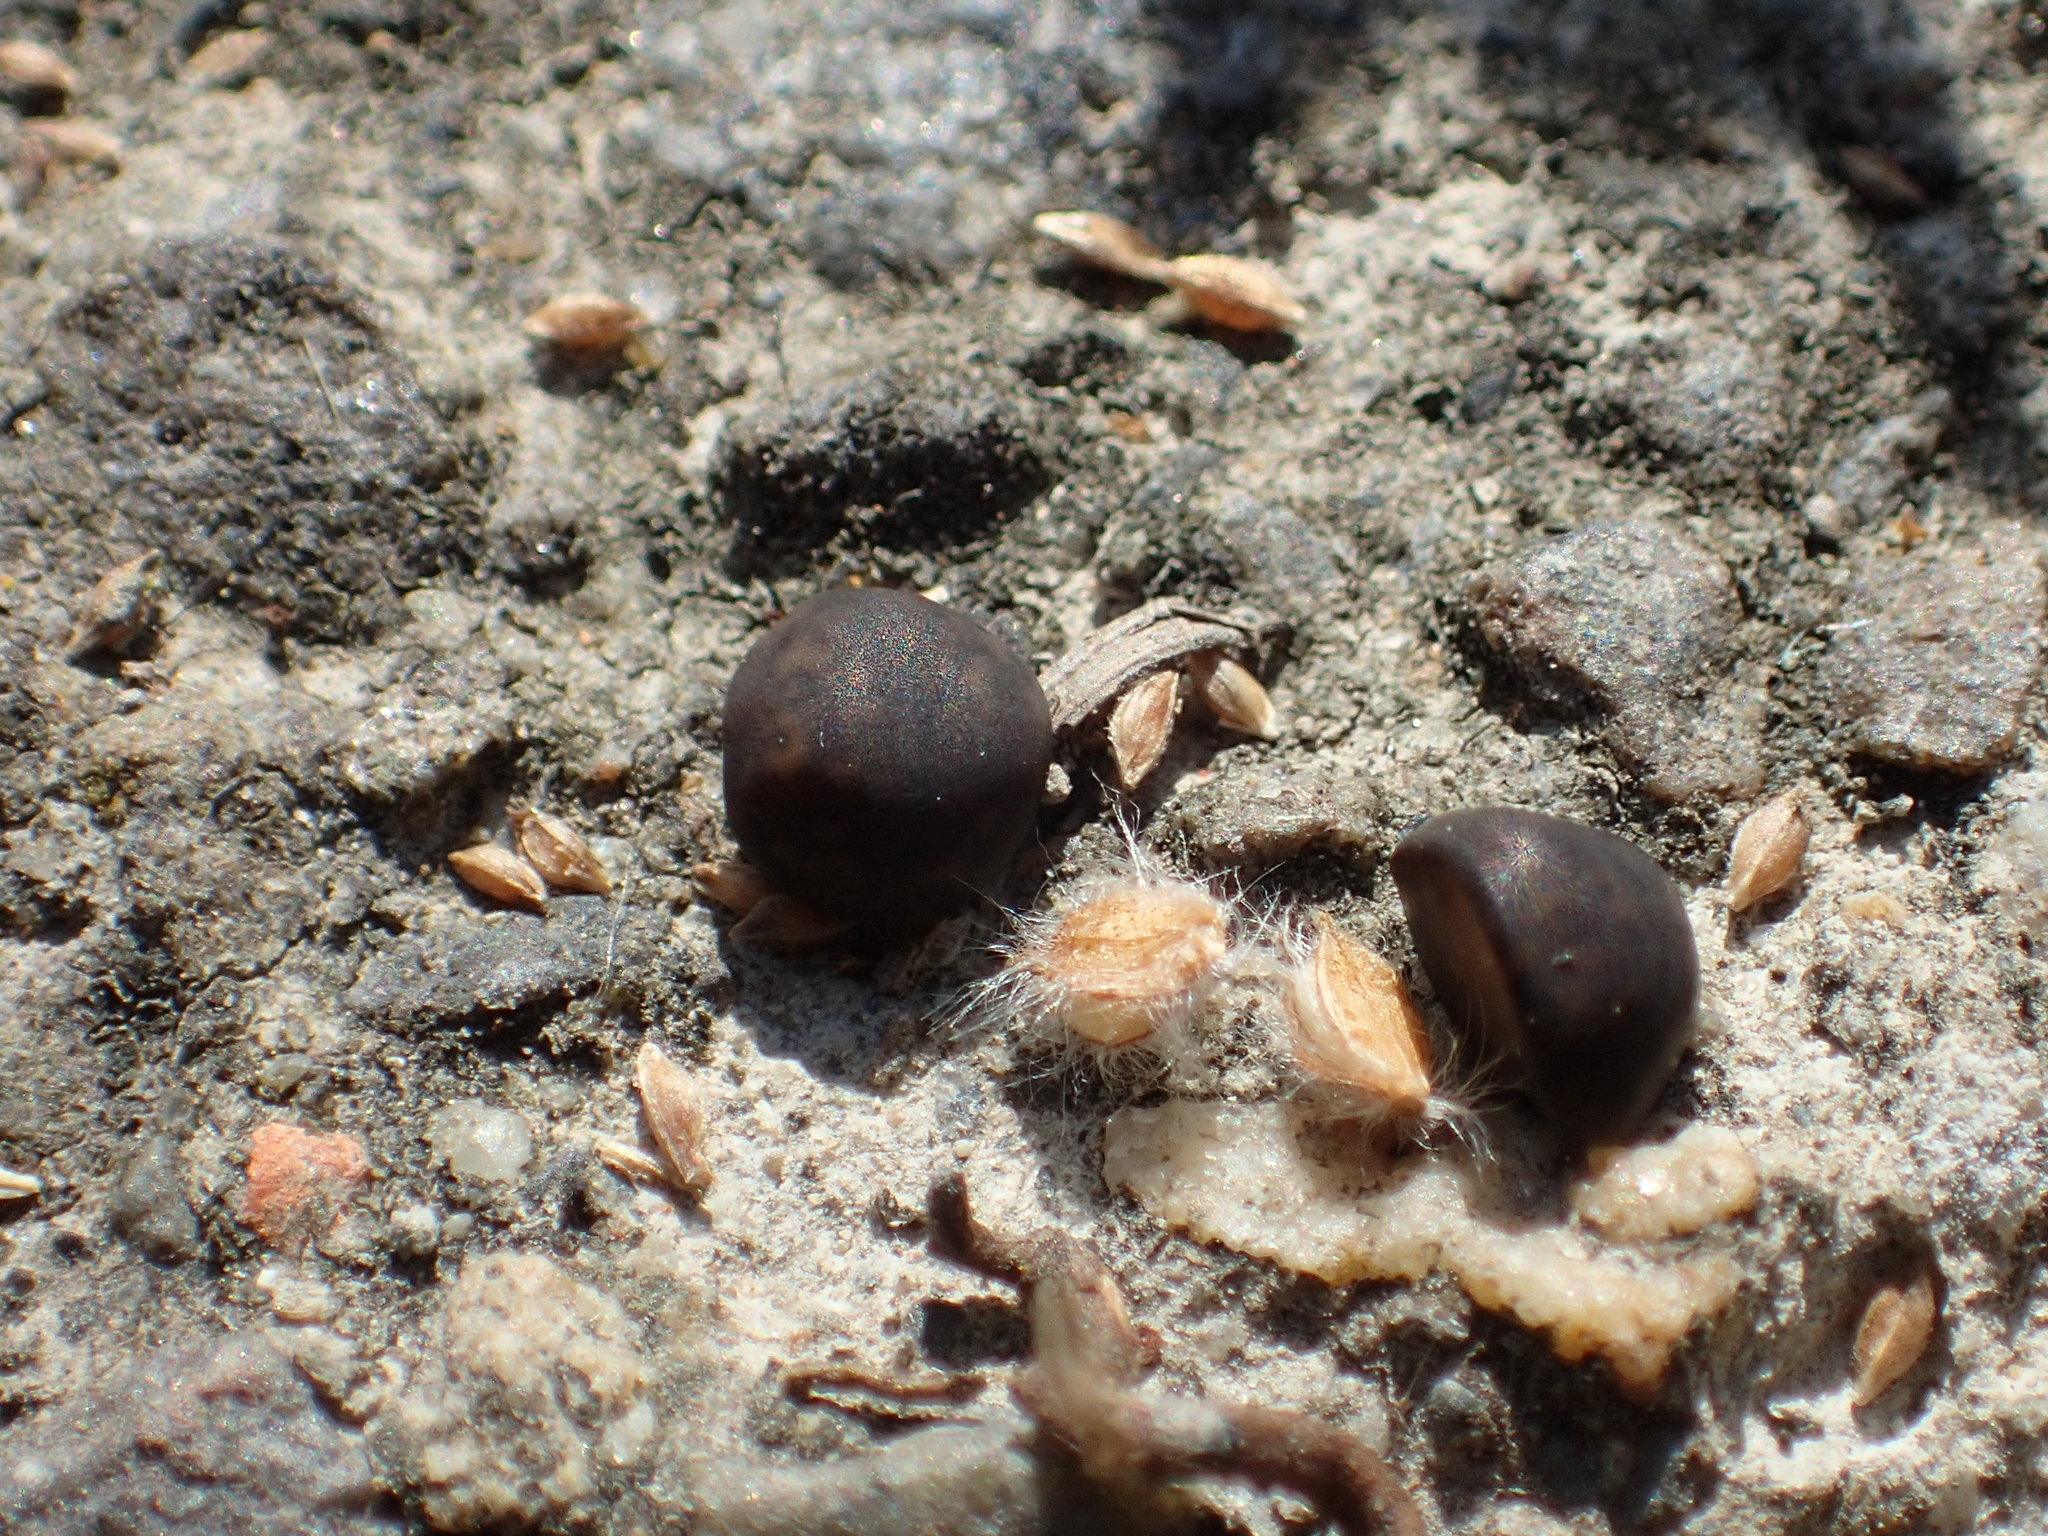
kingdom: Plantae
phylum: Tracheophyta
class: Magnoliopsida
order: Solanales
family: Convolvulaceae
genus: Ipomoea
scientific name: Ipomoea triloba
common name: Little-bell
